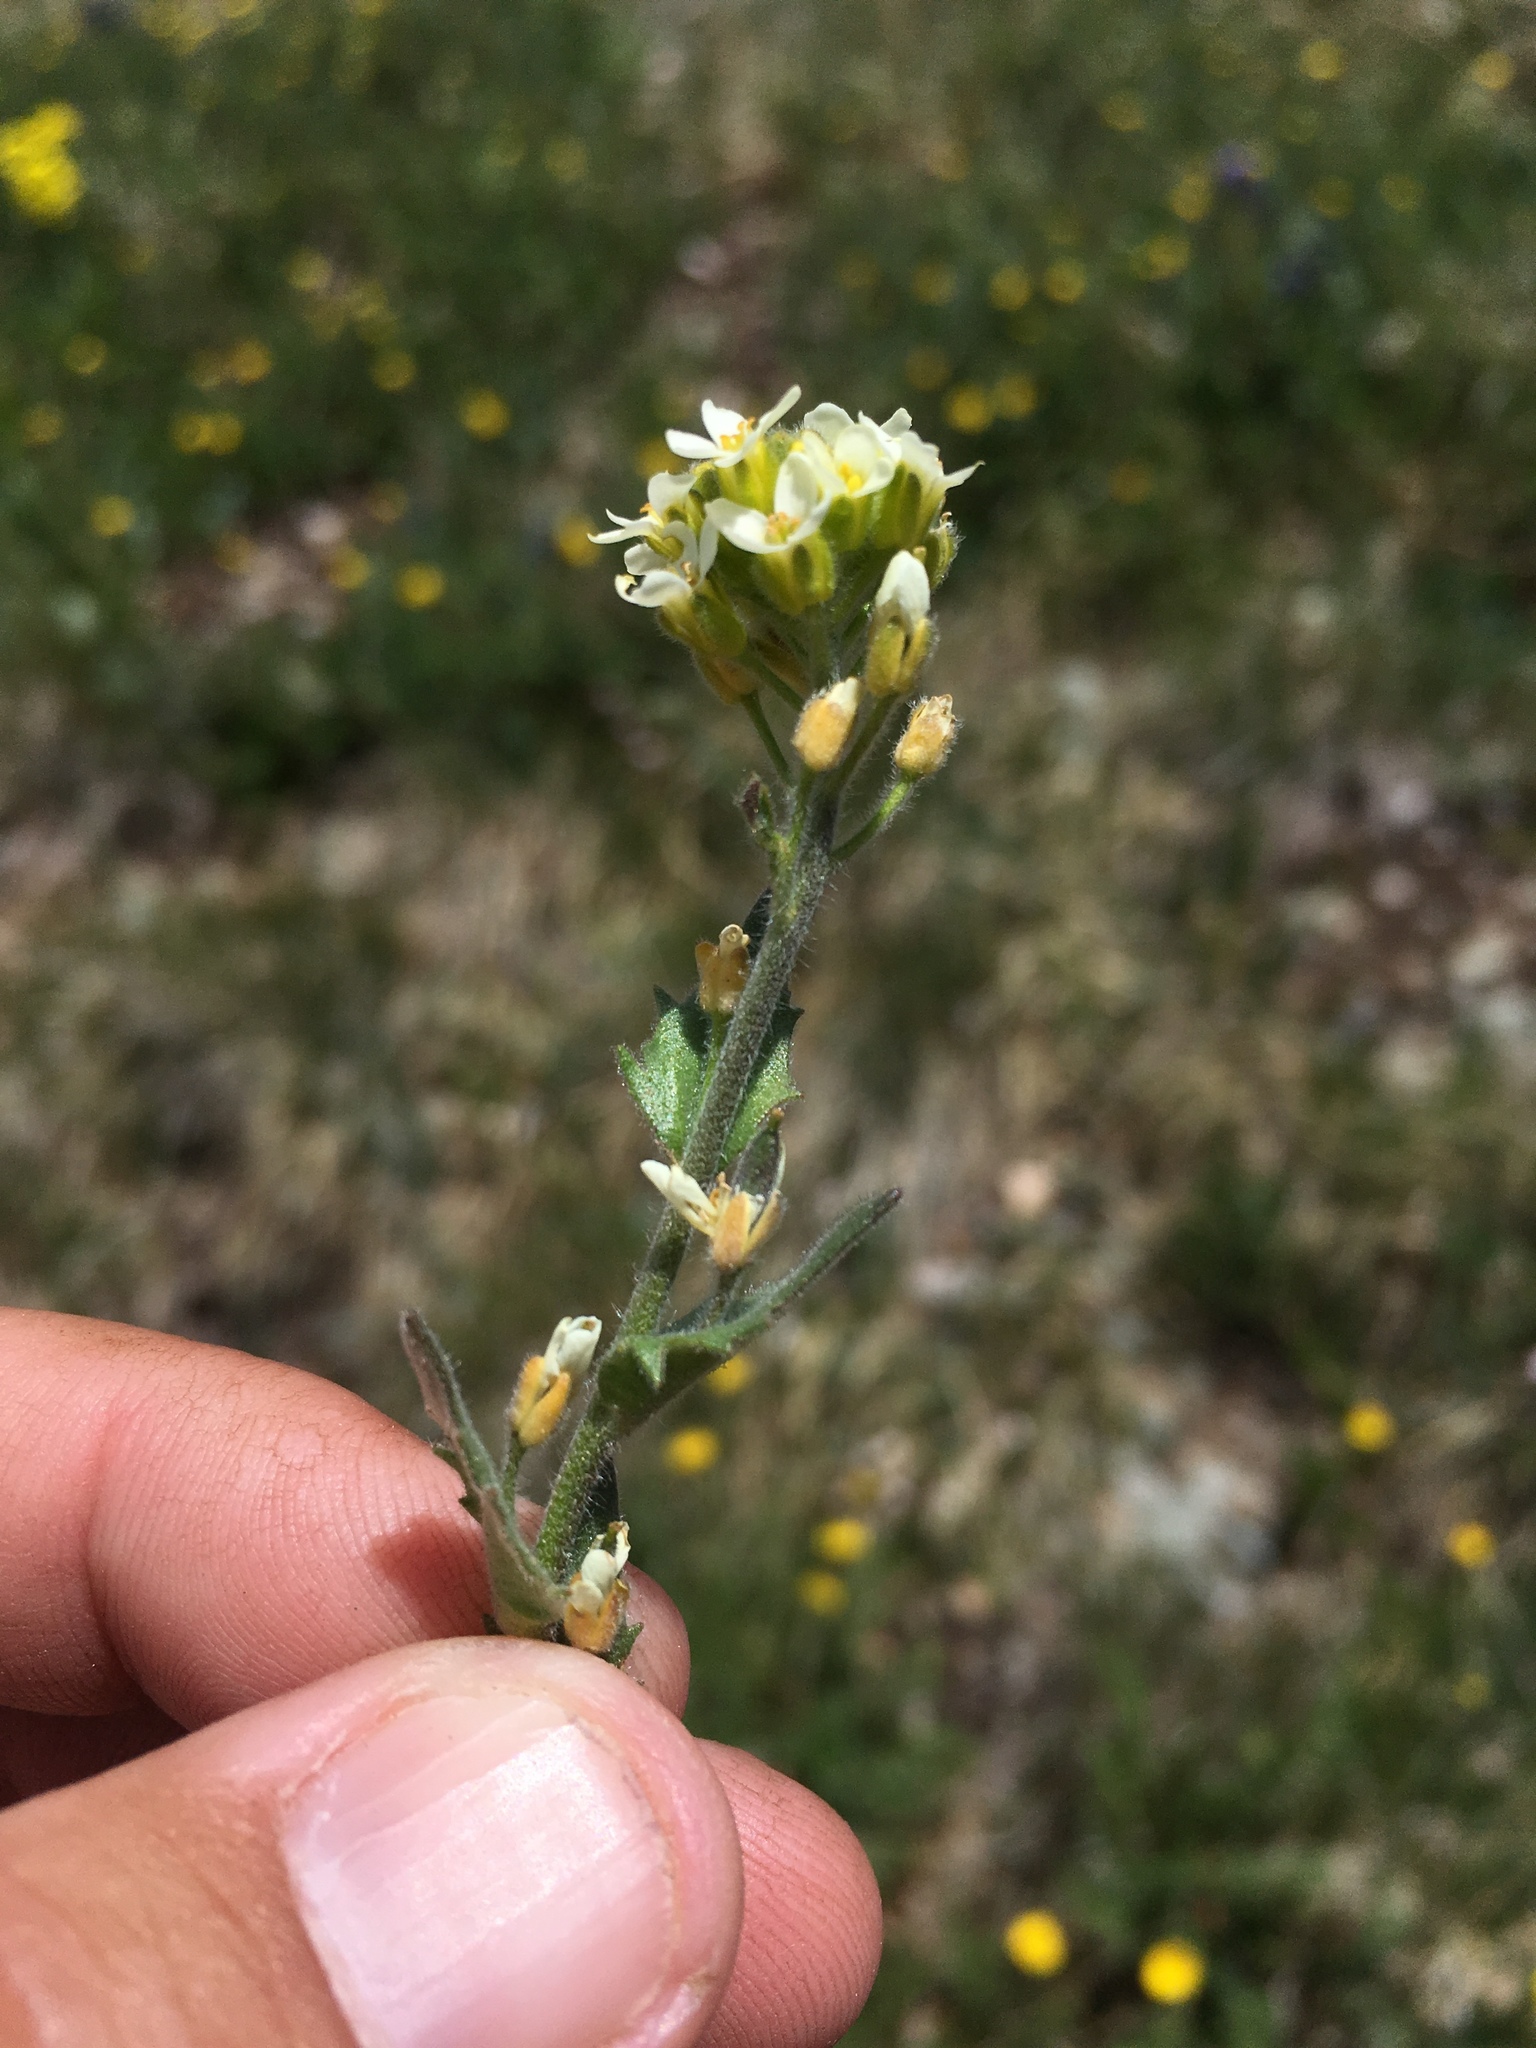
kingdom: Plantae
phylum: Tracheophyta
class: Magnoliopsida
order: Brassicales
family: Brassicaceae
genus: Draba
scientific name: Draba cana
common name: Hoary draba
